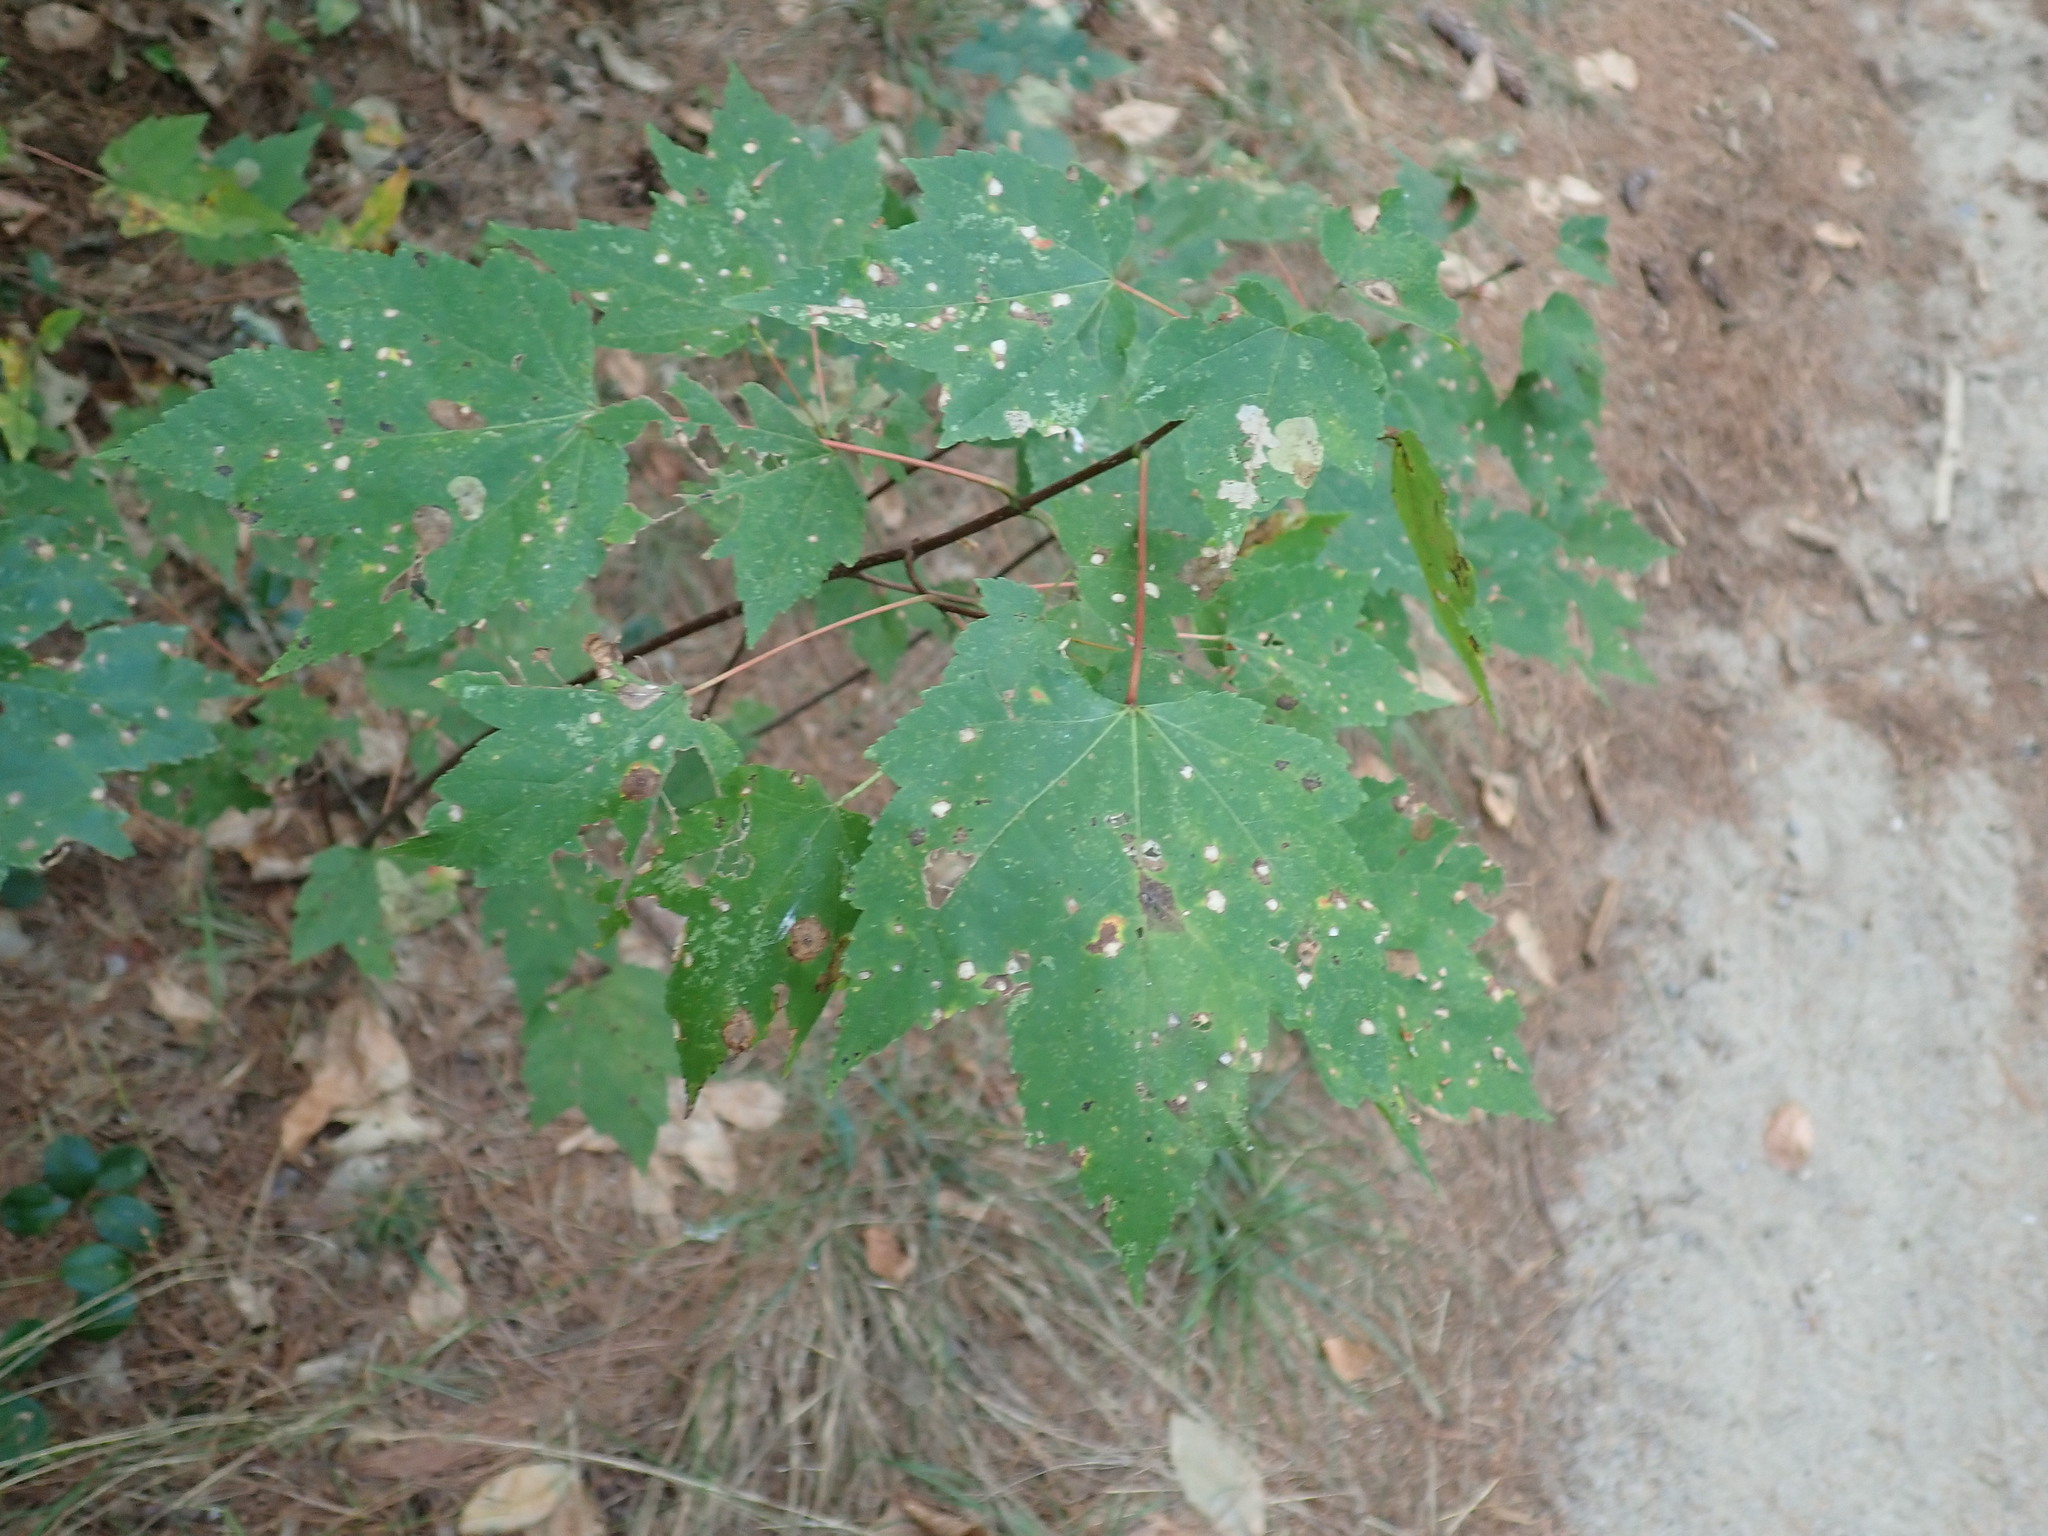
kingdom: Plantae
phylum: Tracheophyta
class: Magnoliopsida
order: Sapindales
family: Sapindaceae
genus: Acer
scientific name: Acer rubrum
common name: Red maple
